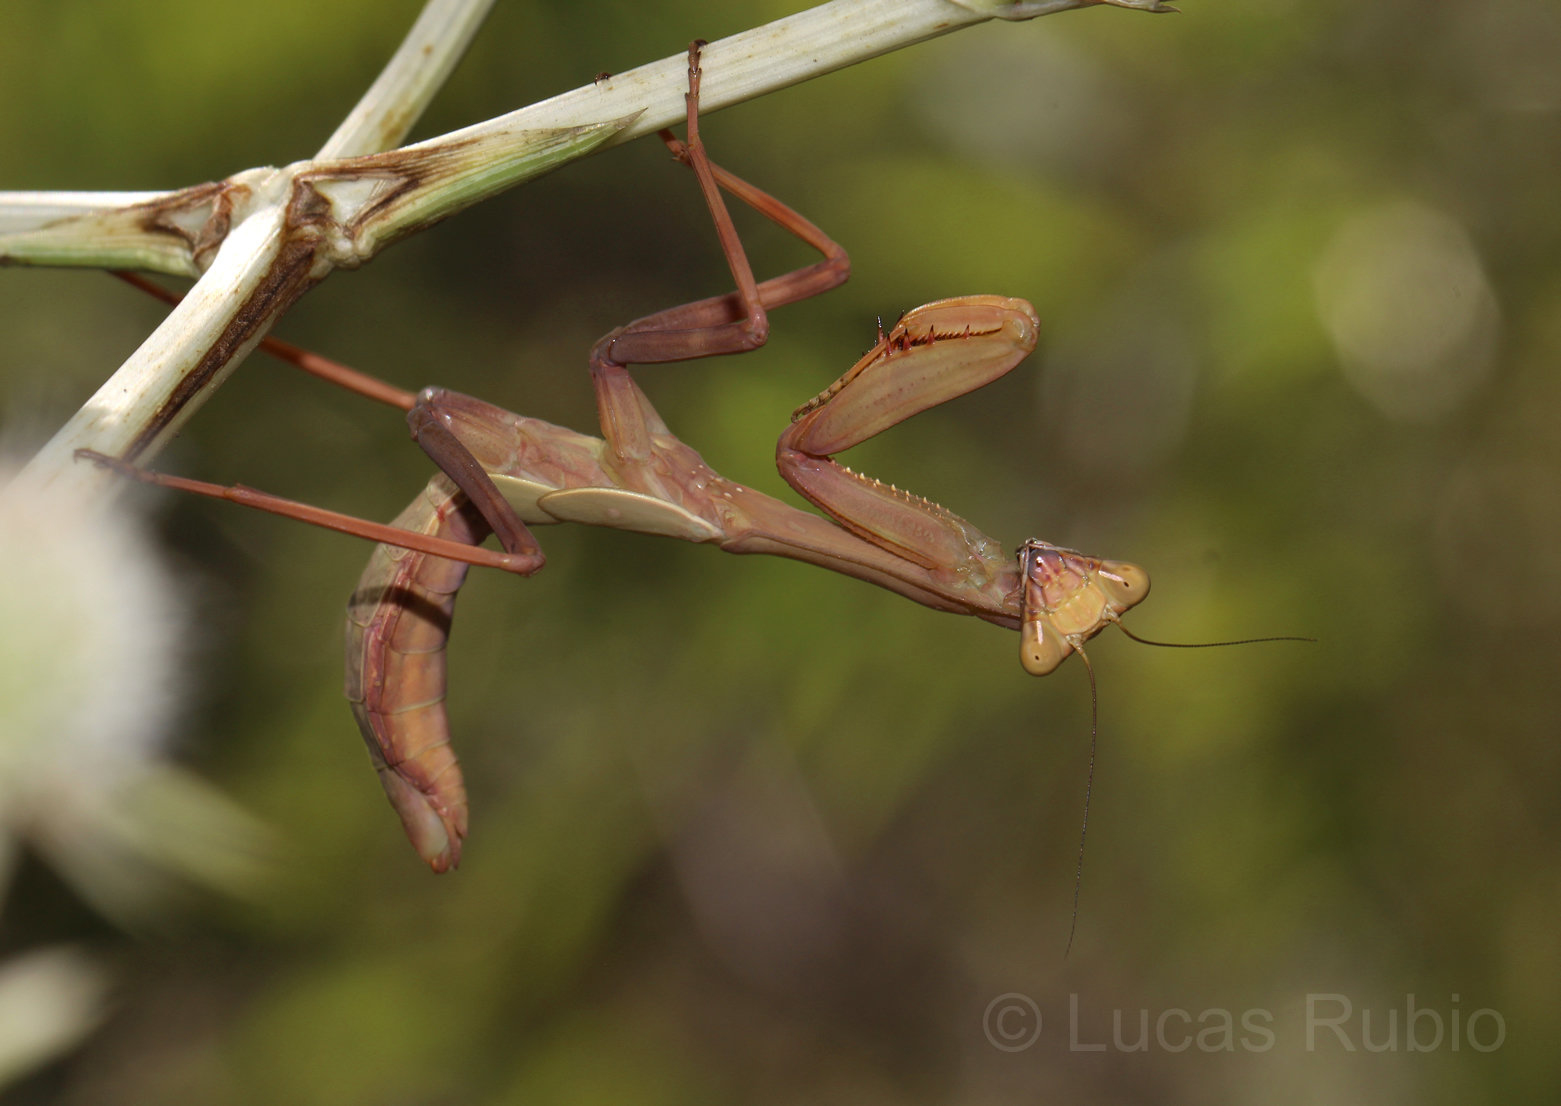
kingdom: Animalia
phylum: Arthropoda
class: Insecta
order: Mantodea
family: Mantidae
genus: Stagmatoptera
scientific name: Stagmatoptera hyaloptera
